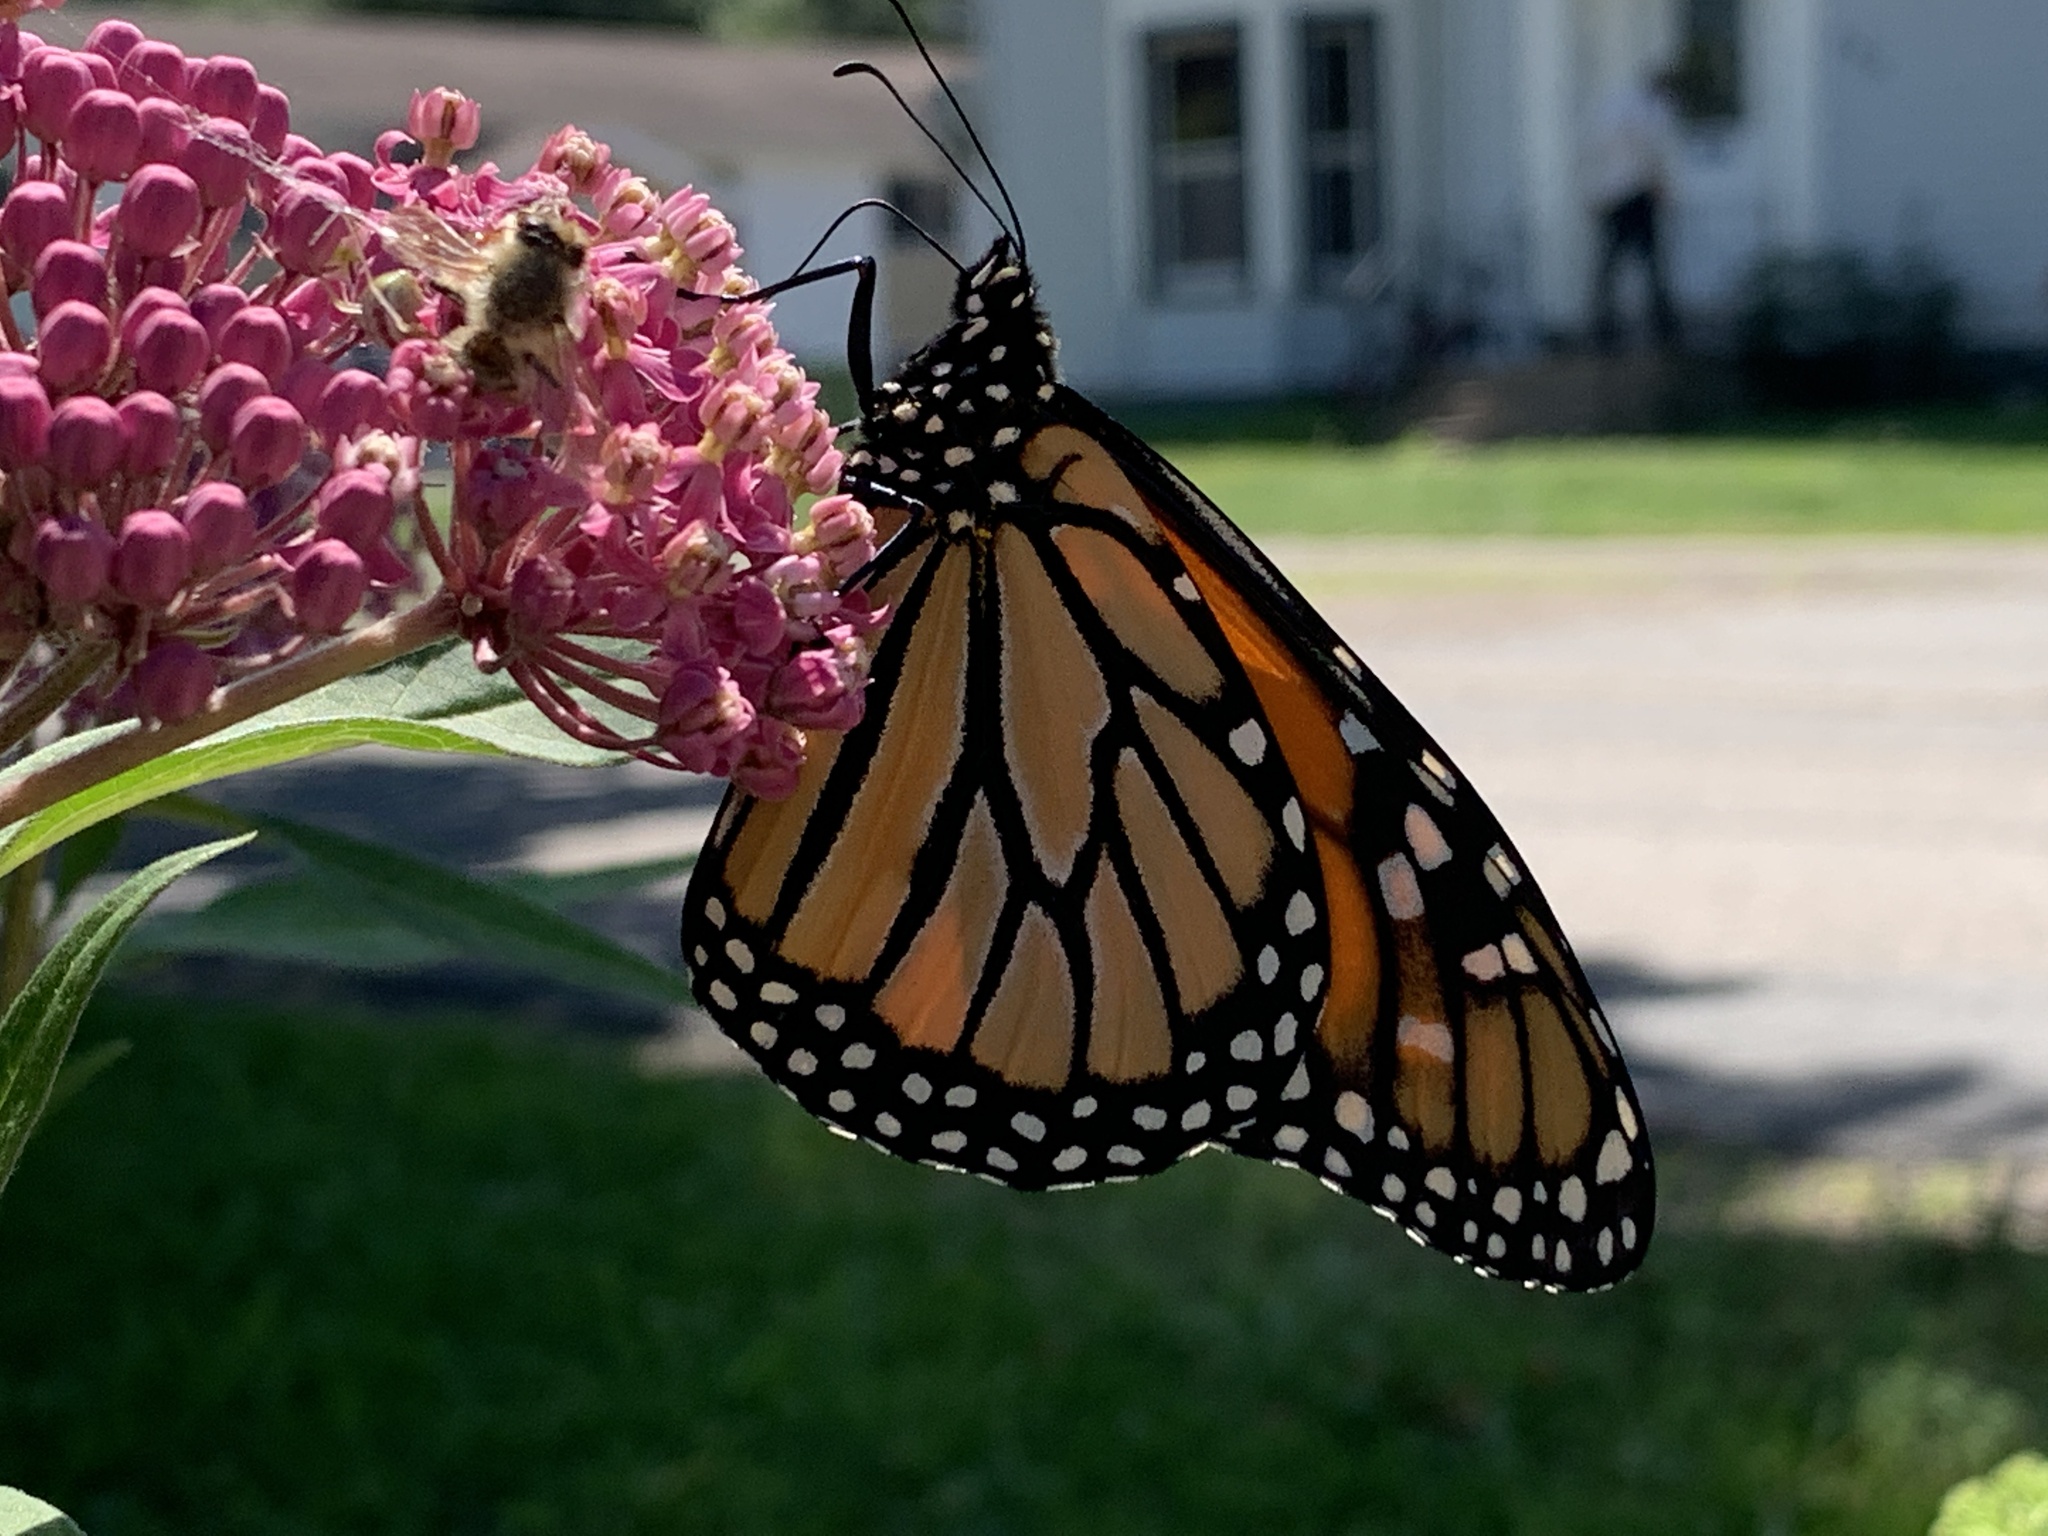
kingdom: Animalia
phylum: Arthropoda
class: Insecta
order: Lepidoptera
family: Nymphalidae
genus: Danaus
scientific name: Danaus plexippus
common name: Monarch
